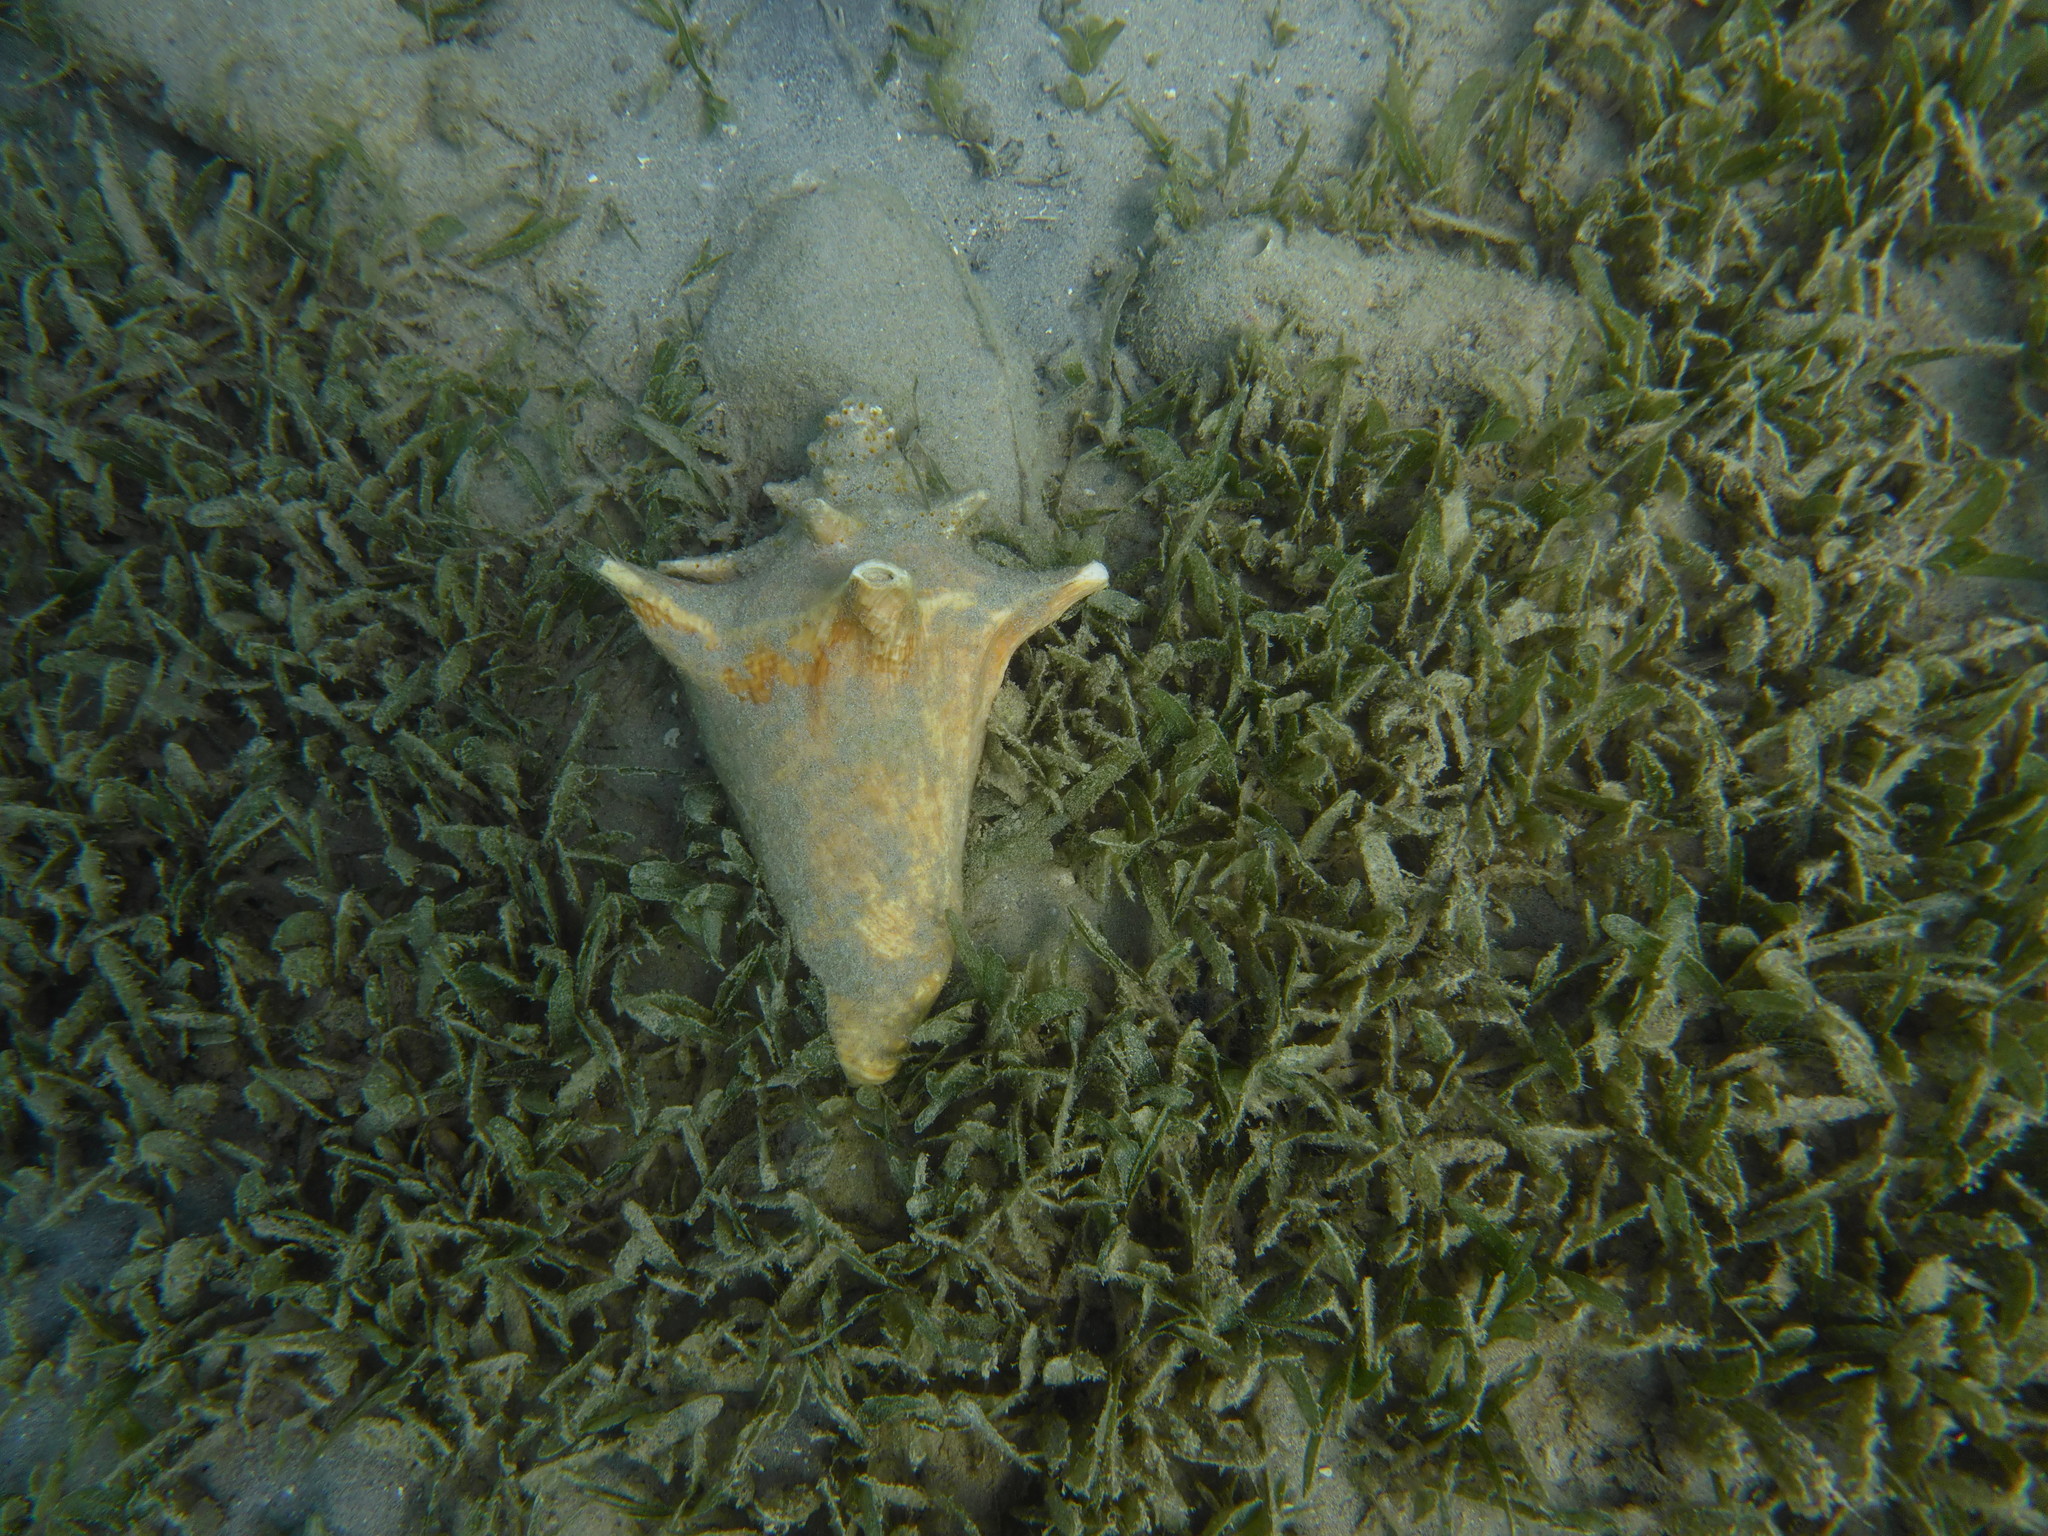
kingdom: Animalia
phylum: Mollusca
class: Gastropoda
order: Littorinimorpha
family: Strombidae
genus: Aliger
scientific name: Aliger gigas
